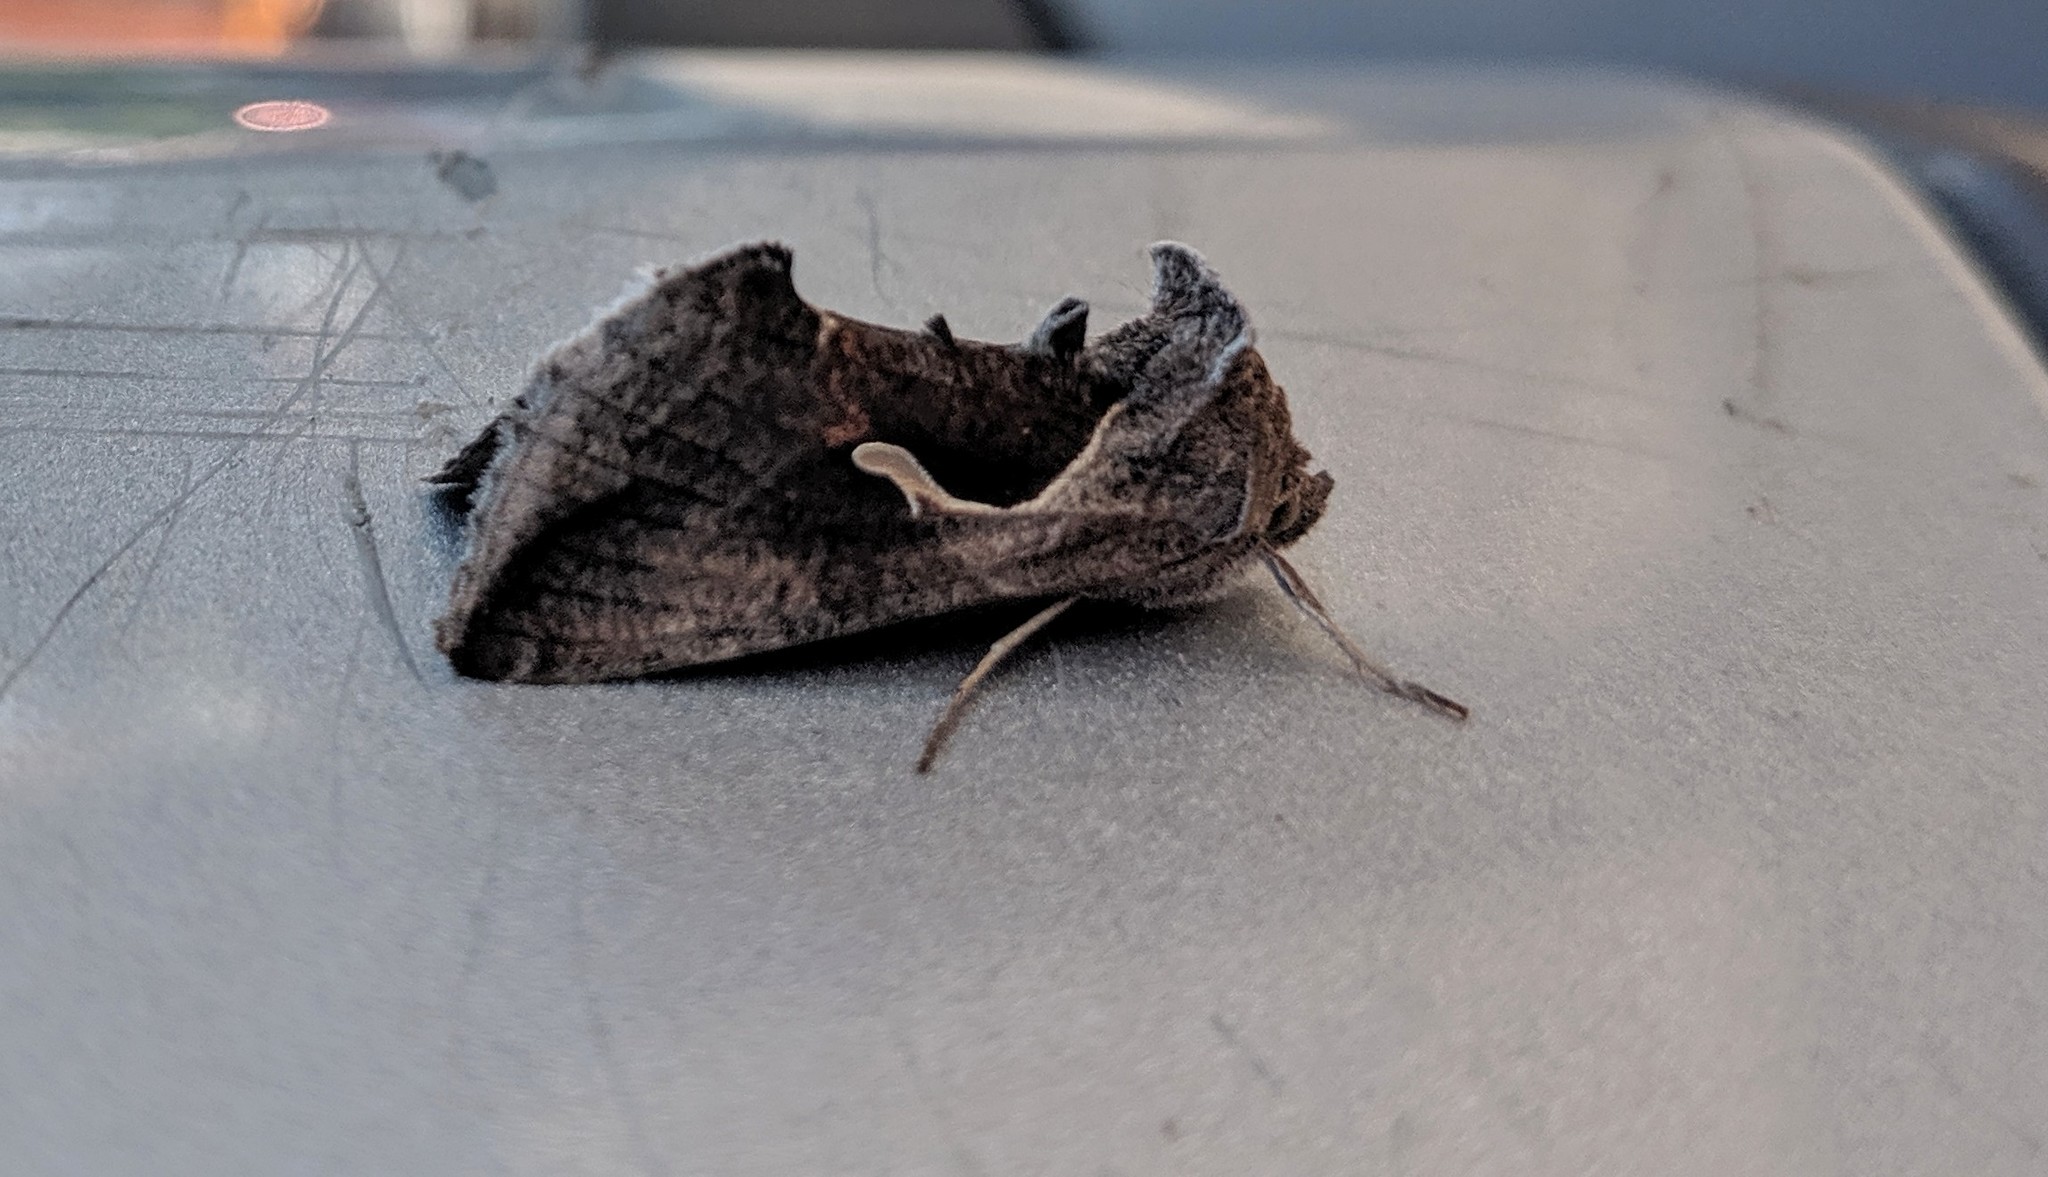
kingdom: Animalia
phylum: Arthropoda
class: Insecta
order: Lepidoptera
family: Noctuidae
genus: Anagrapha
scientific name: Anagrapha falcifera
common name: Celery looper
